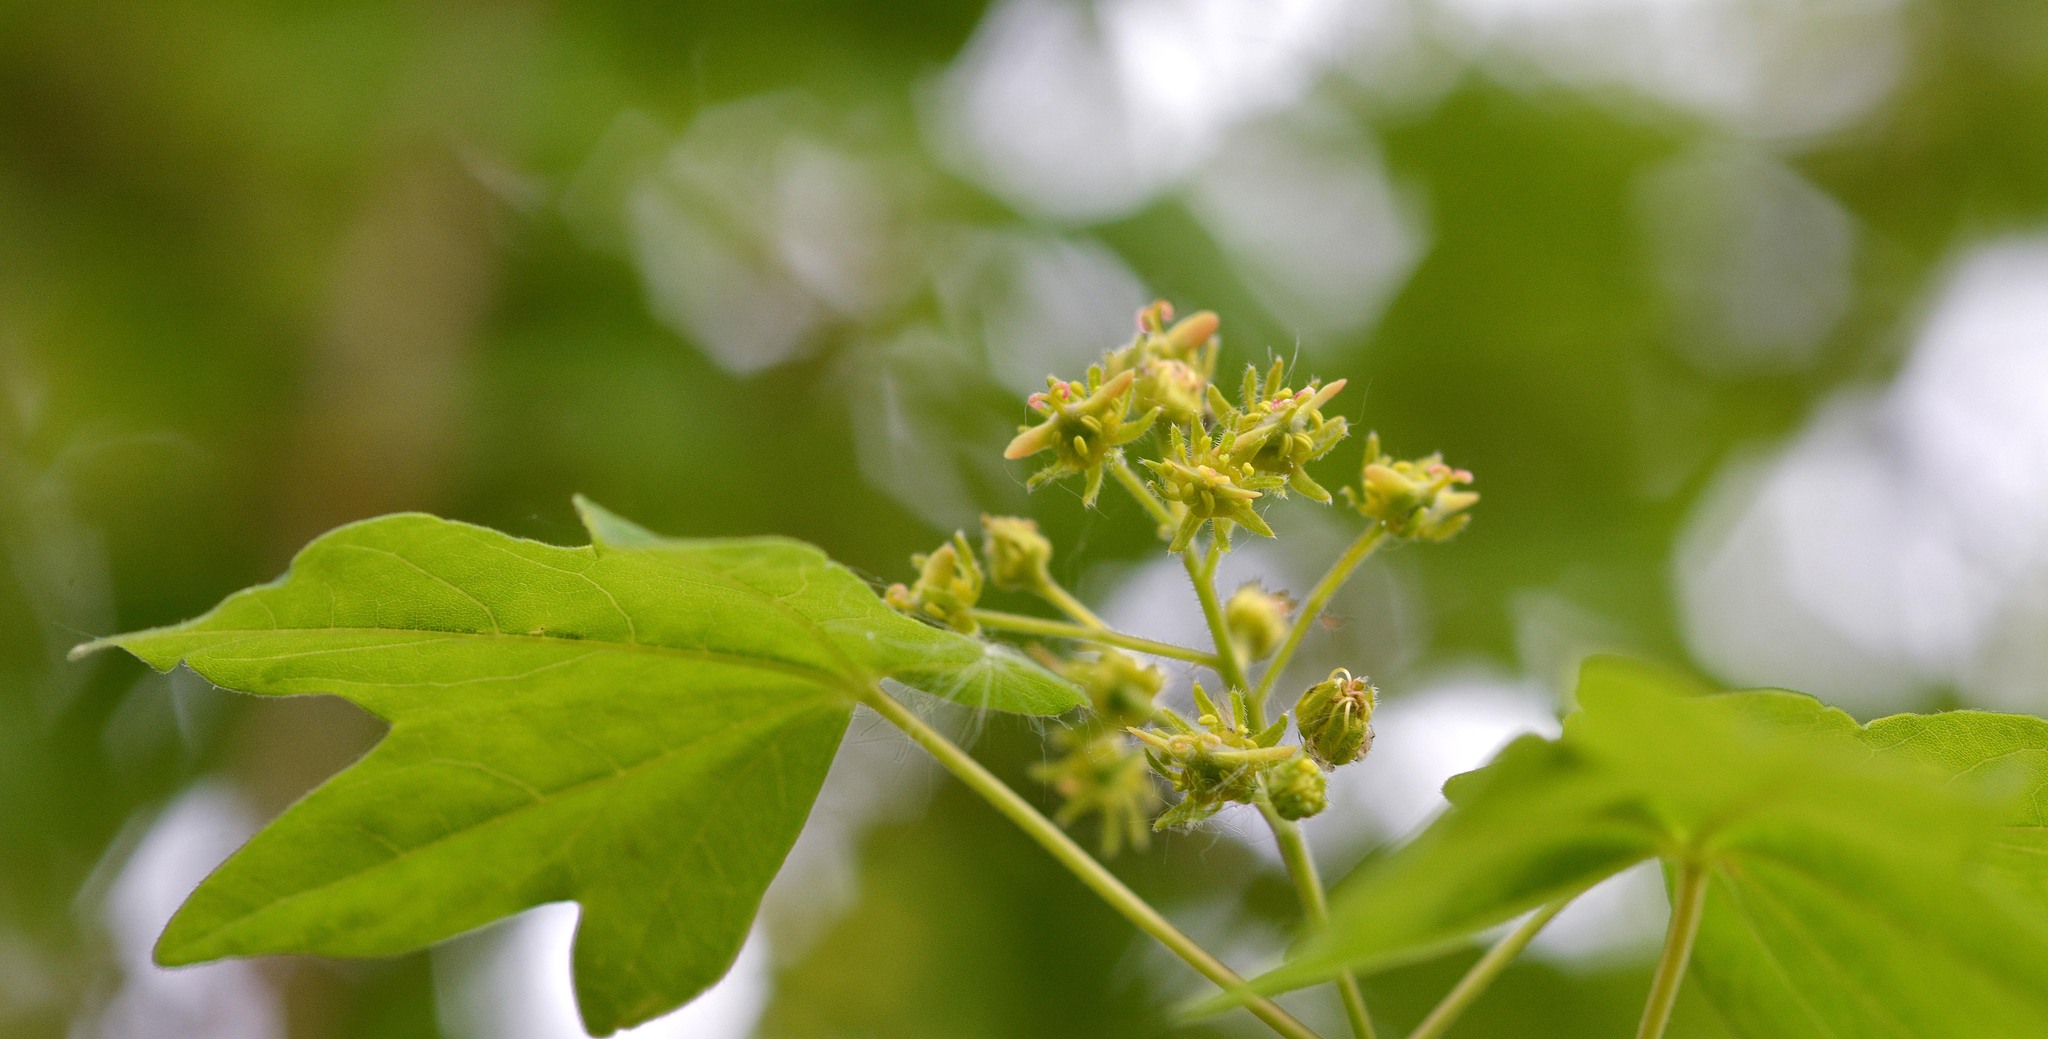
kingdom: Plantae
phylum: Tracheophyta
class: Magnoliopsida
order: Sapindales
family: Sapindaceae
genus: Acer
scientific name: Acer campestre
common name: Field maple
